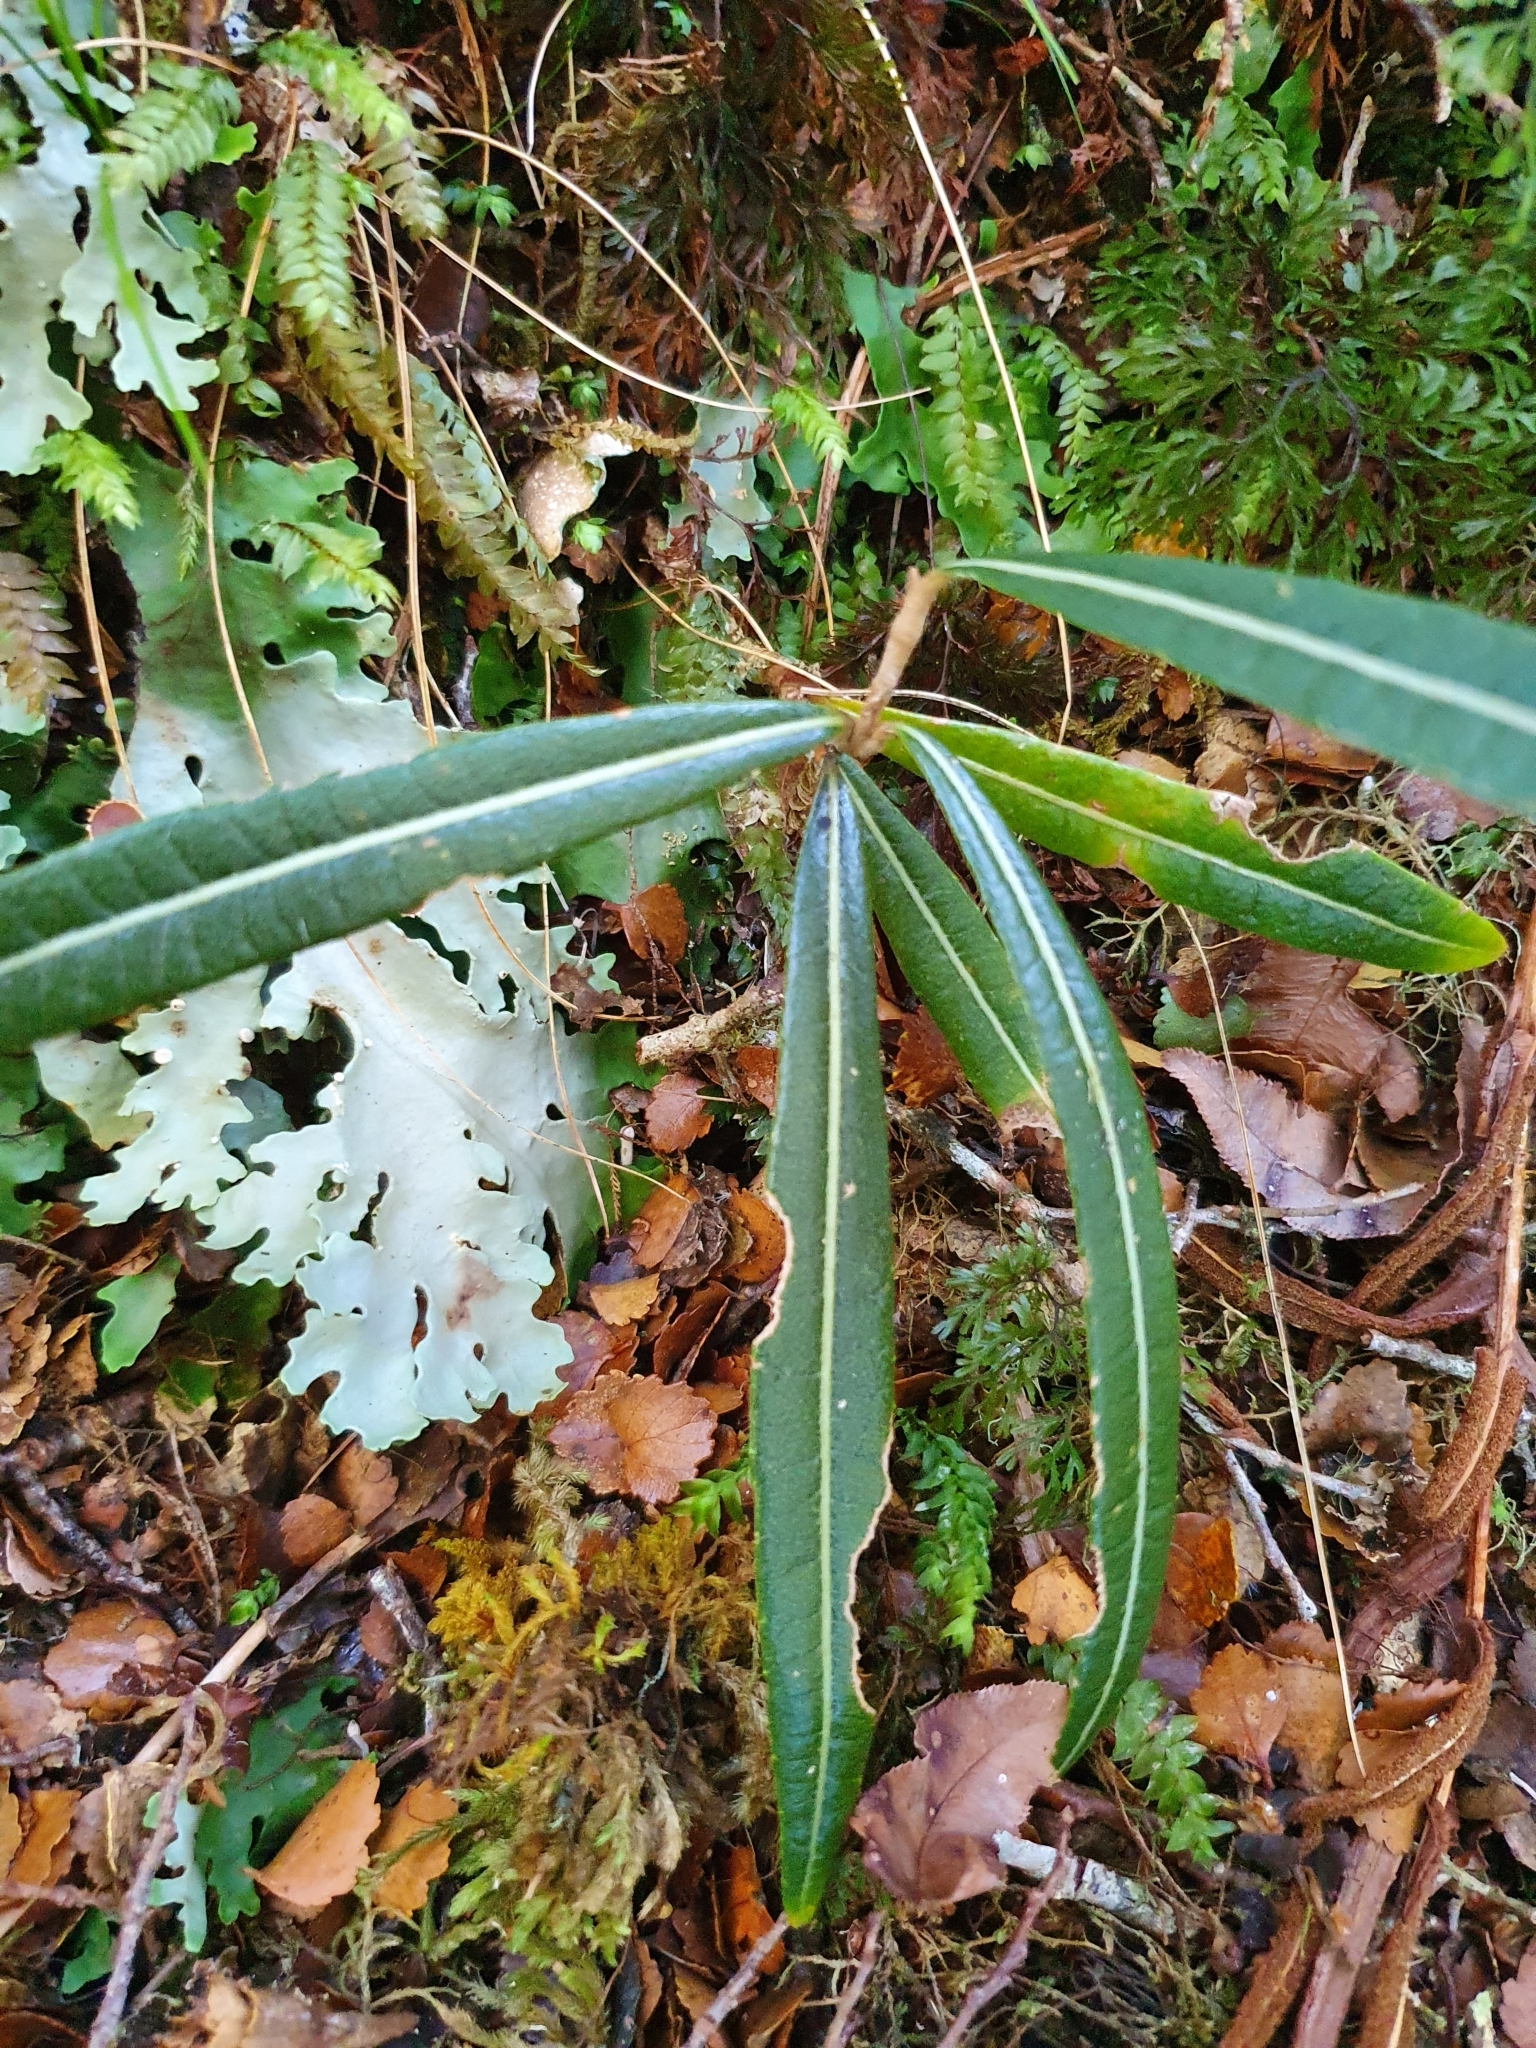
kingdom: Plantae
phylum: Tracheophyta
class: Magnoliopsida
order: Asterales
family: Asteraceae
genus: Olearia
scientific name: Olearia lacunosa
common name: Lancewood tree daisy
